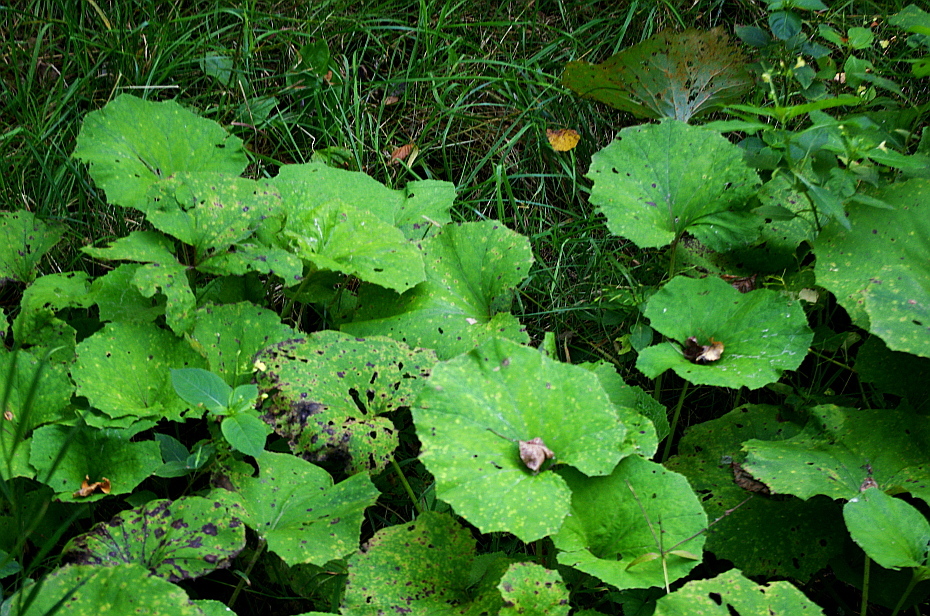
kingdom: Plantae
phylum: Tracheophyta
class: Magnoliopsida
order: Asterales
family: Asteraceae
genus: Tussilago
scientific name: Tussilago farfara
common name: Coltsfoot
